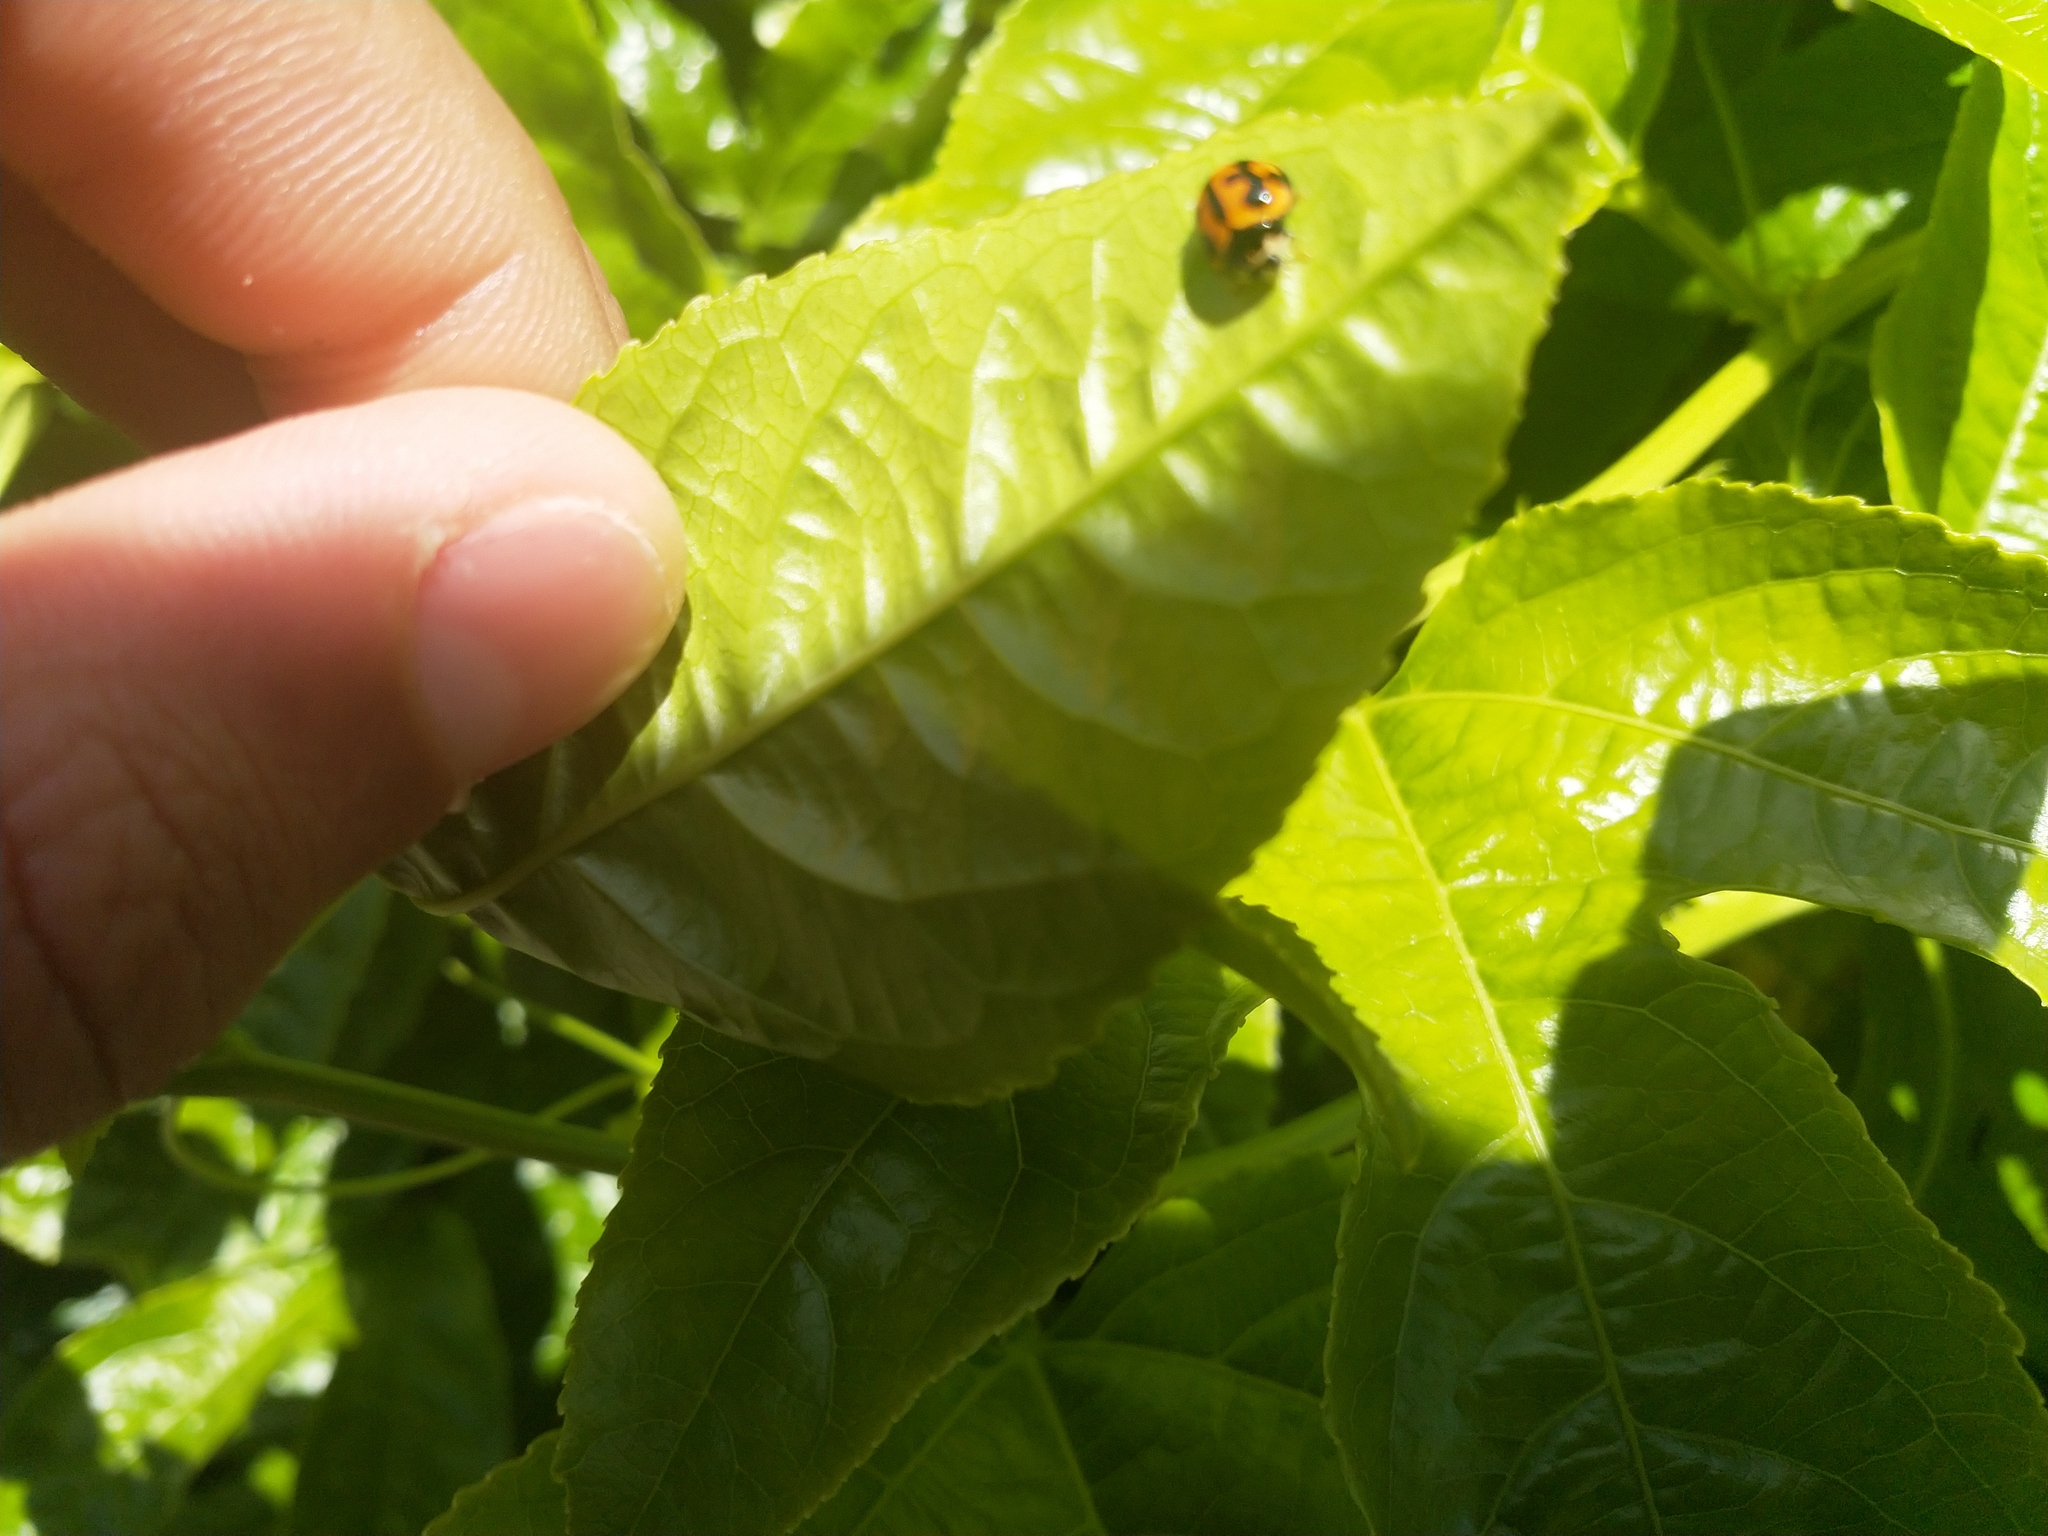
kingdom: Animalia
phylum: Arthropoda
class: Insecta
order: Coleoptera
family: Coccinellidae
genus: Coelophora
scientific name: Coelophora inaequalis
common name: Common australian lady beetle
